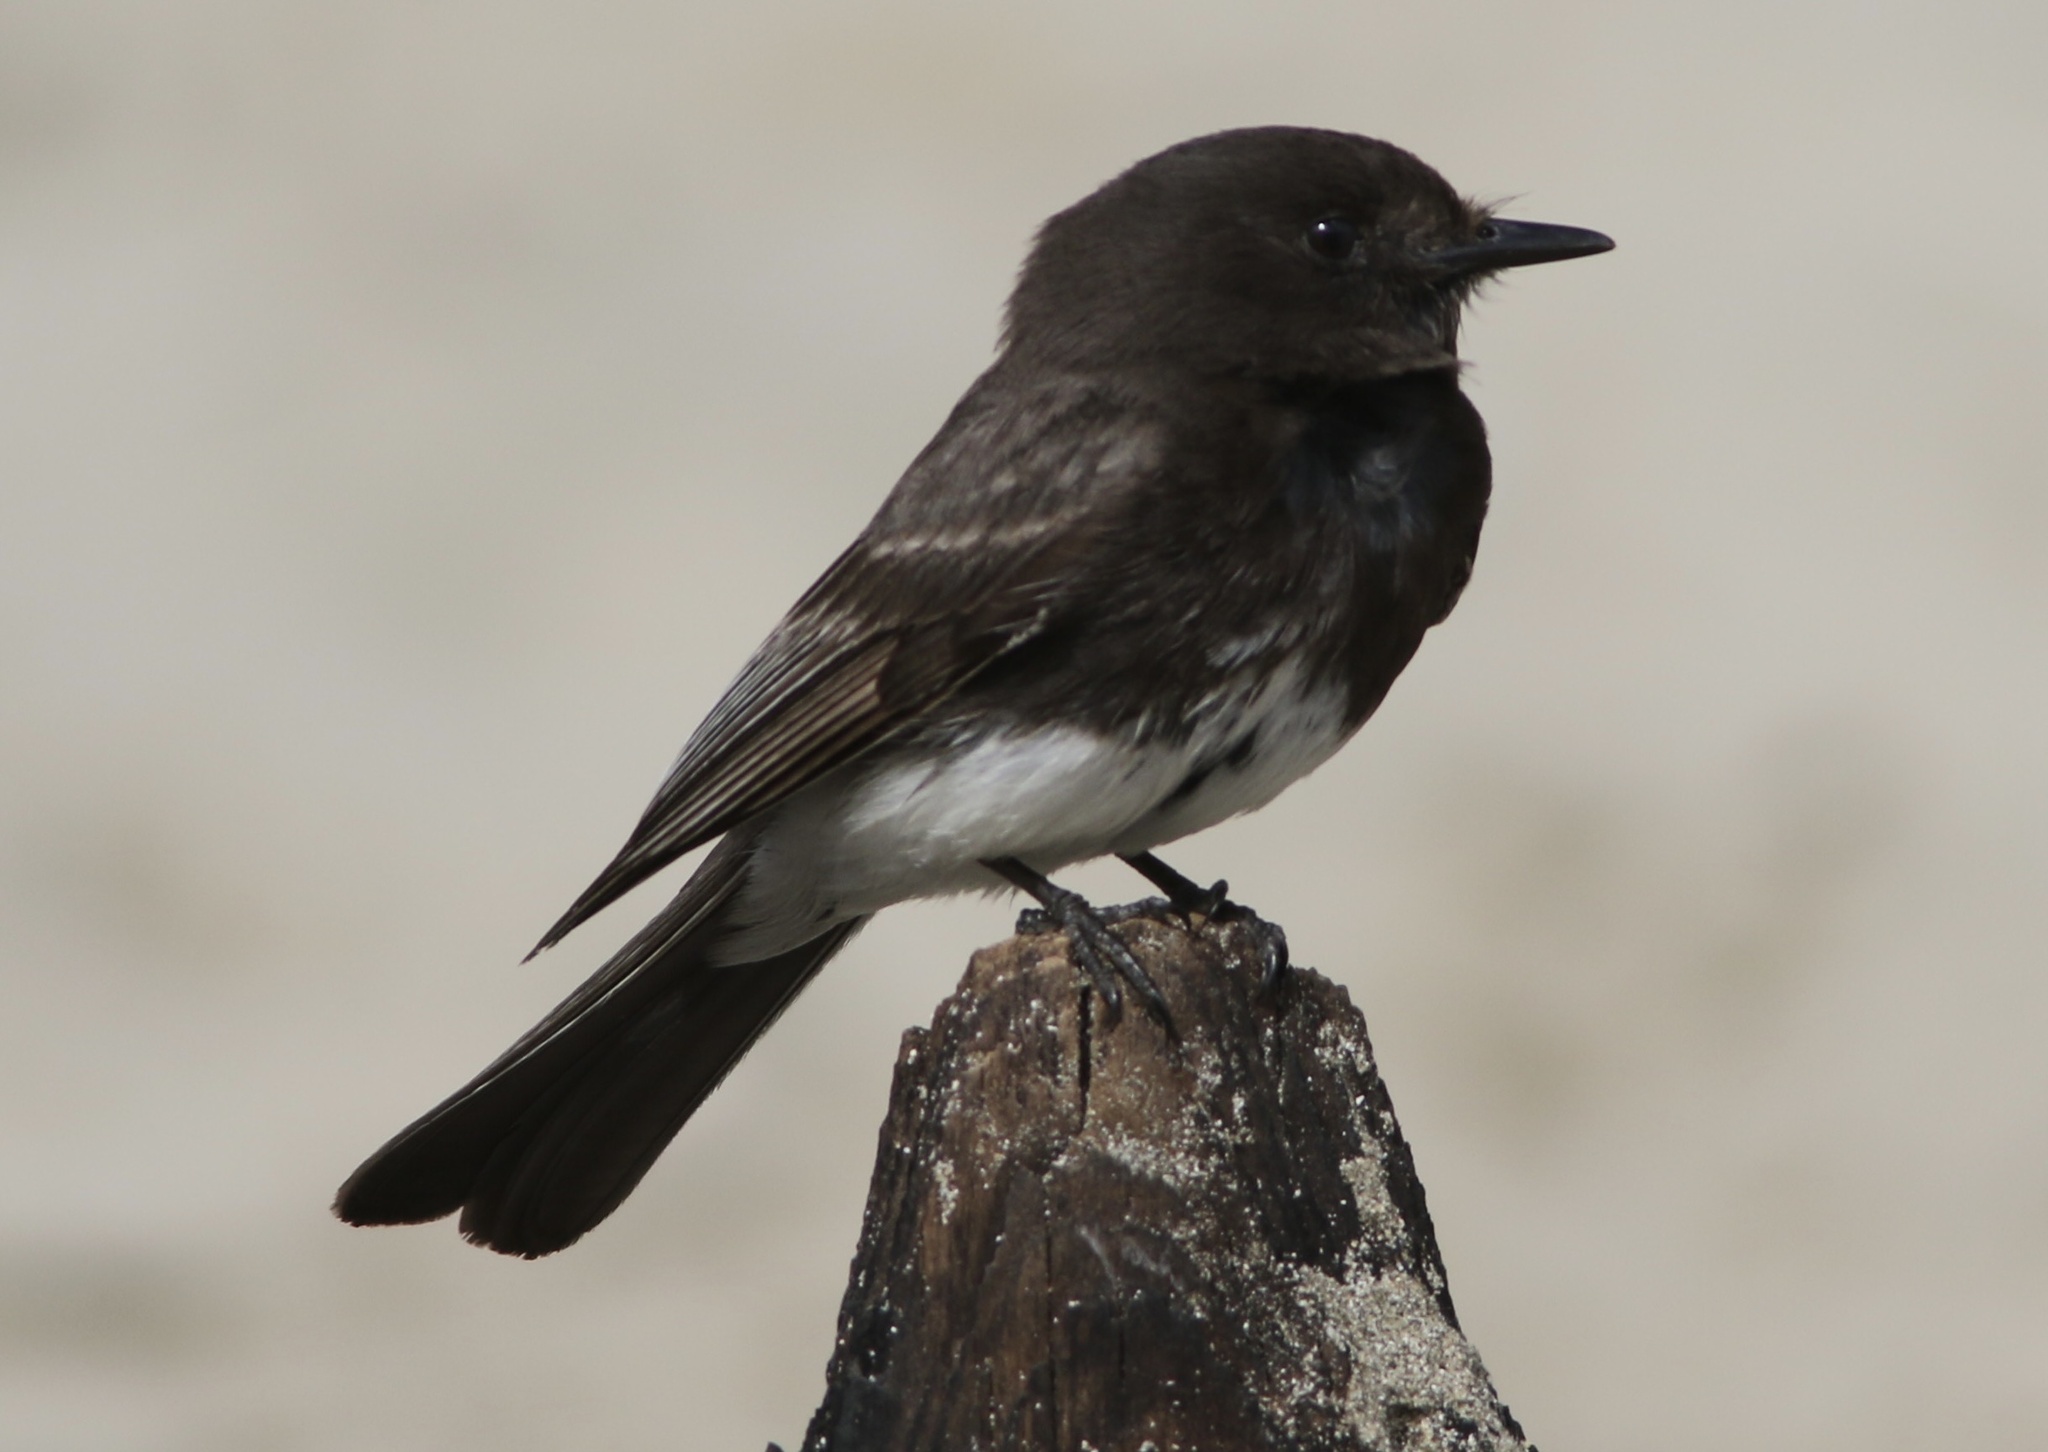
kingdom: Animalia
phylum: Chordata
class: Aves
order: Passeriformes
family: Tyrannidae
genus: Sayornis
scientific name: Sayornis nigricans
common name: Black phoebe
